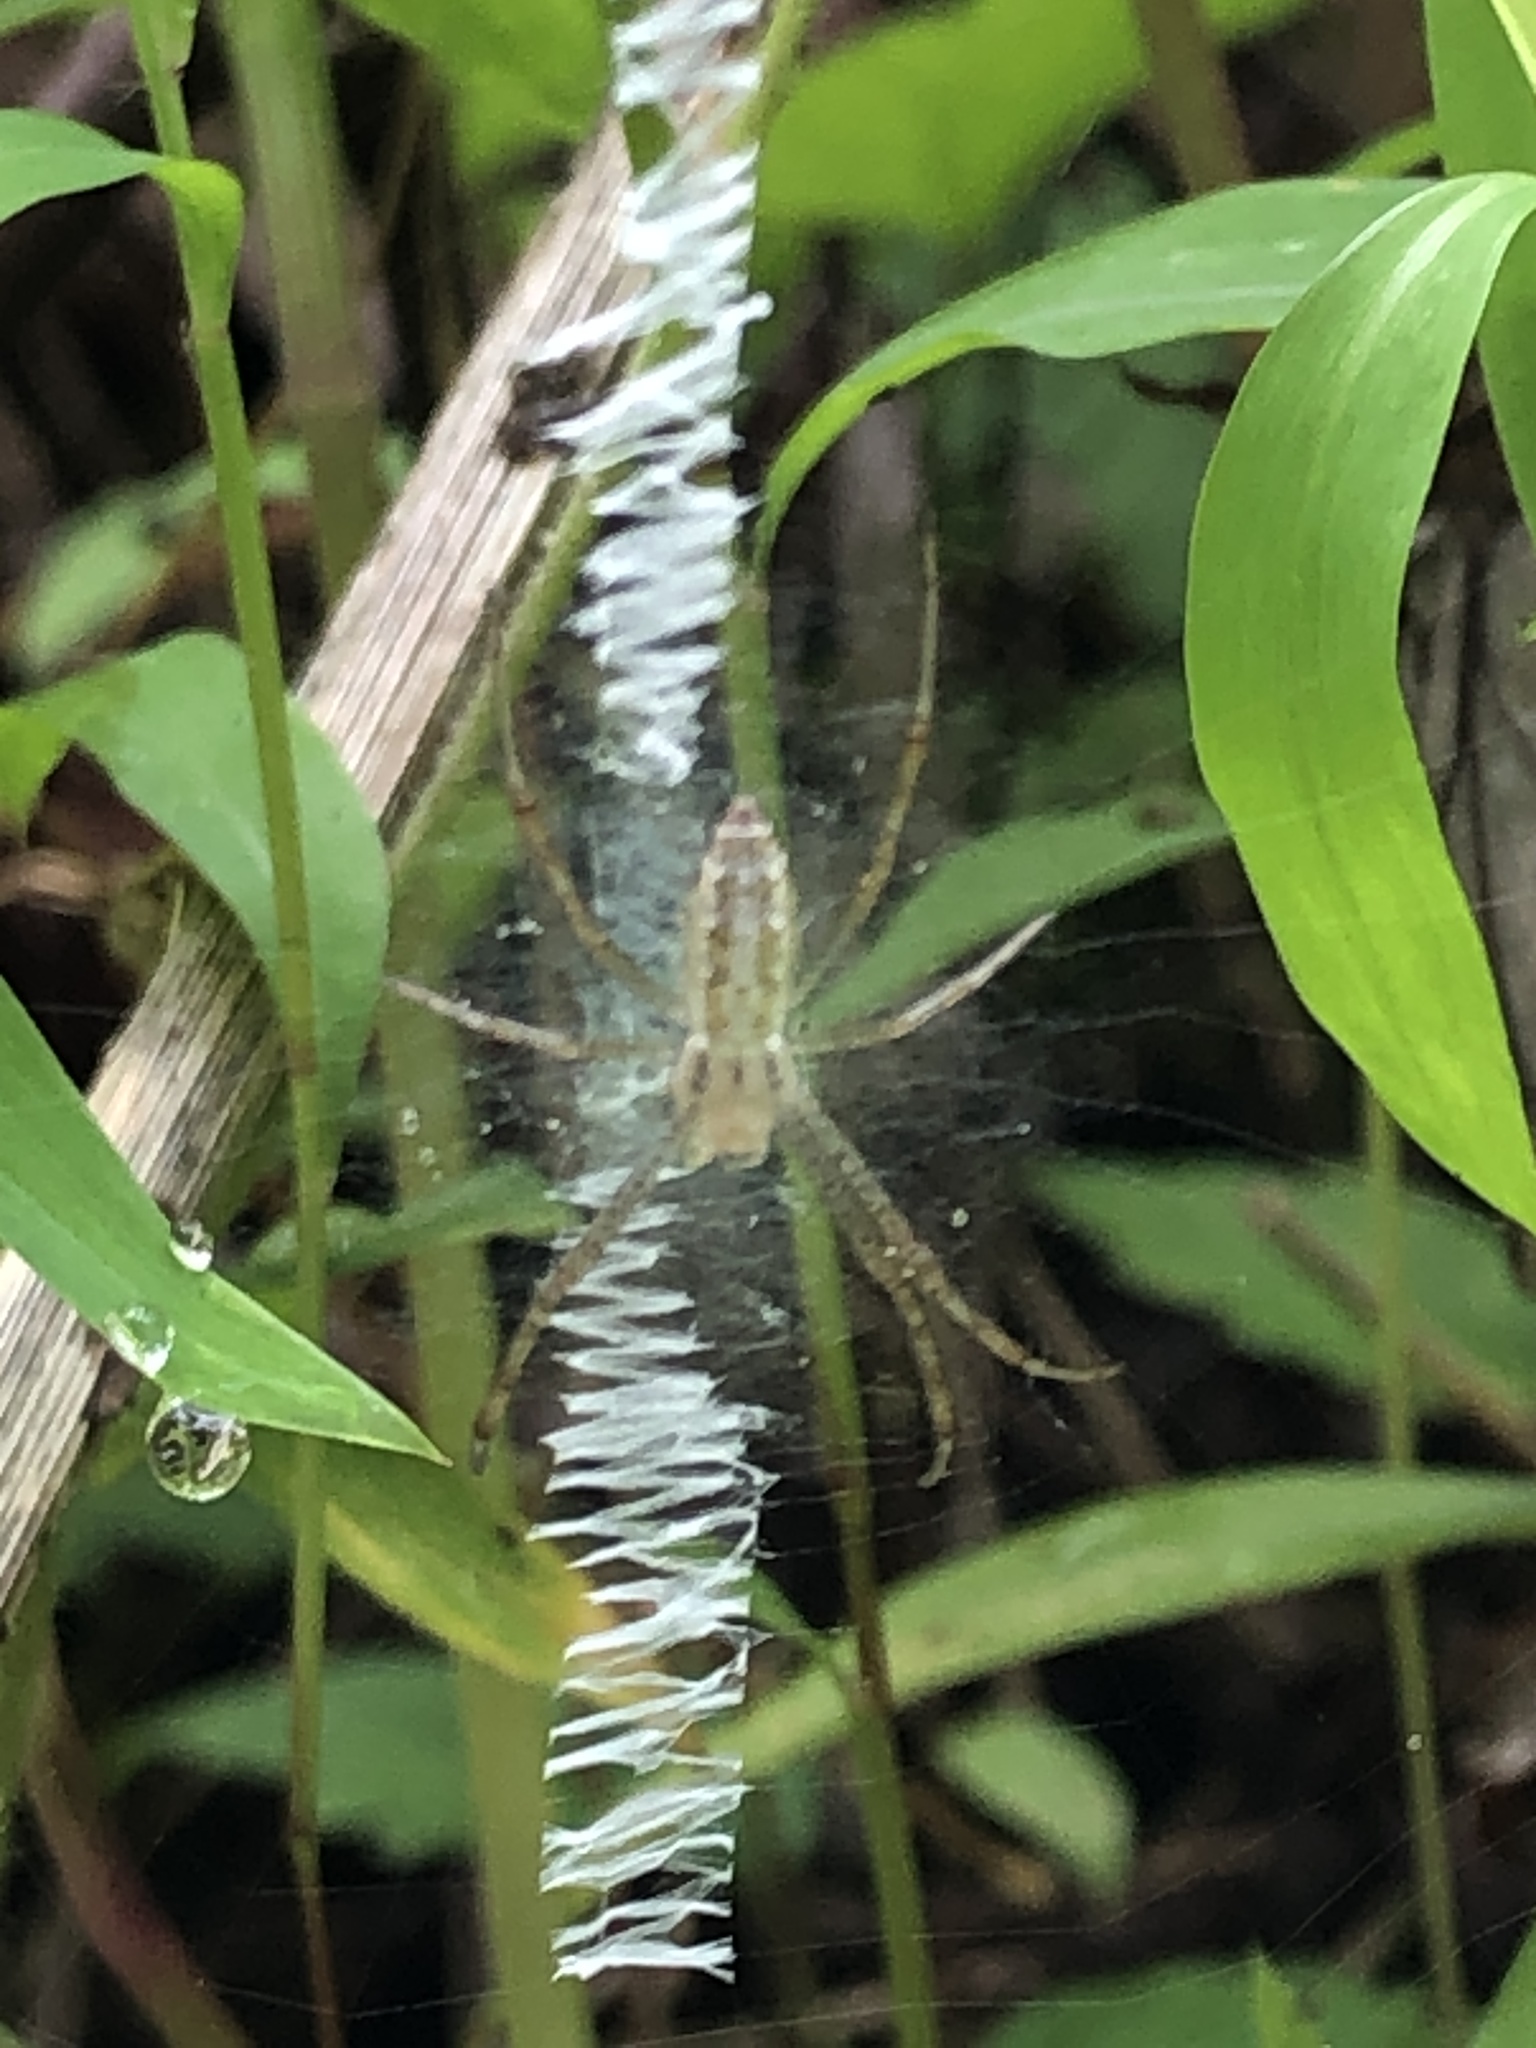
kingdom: Animalia
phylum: Arthropoda
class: Arachnida
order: Araneae
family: Araneidae
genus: Argiope
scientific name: Argiope bruennichi
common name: Wasp spider
